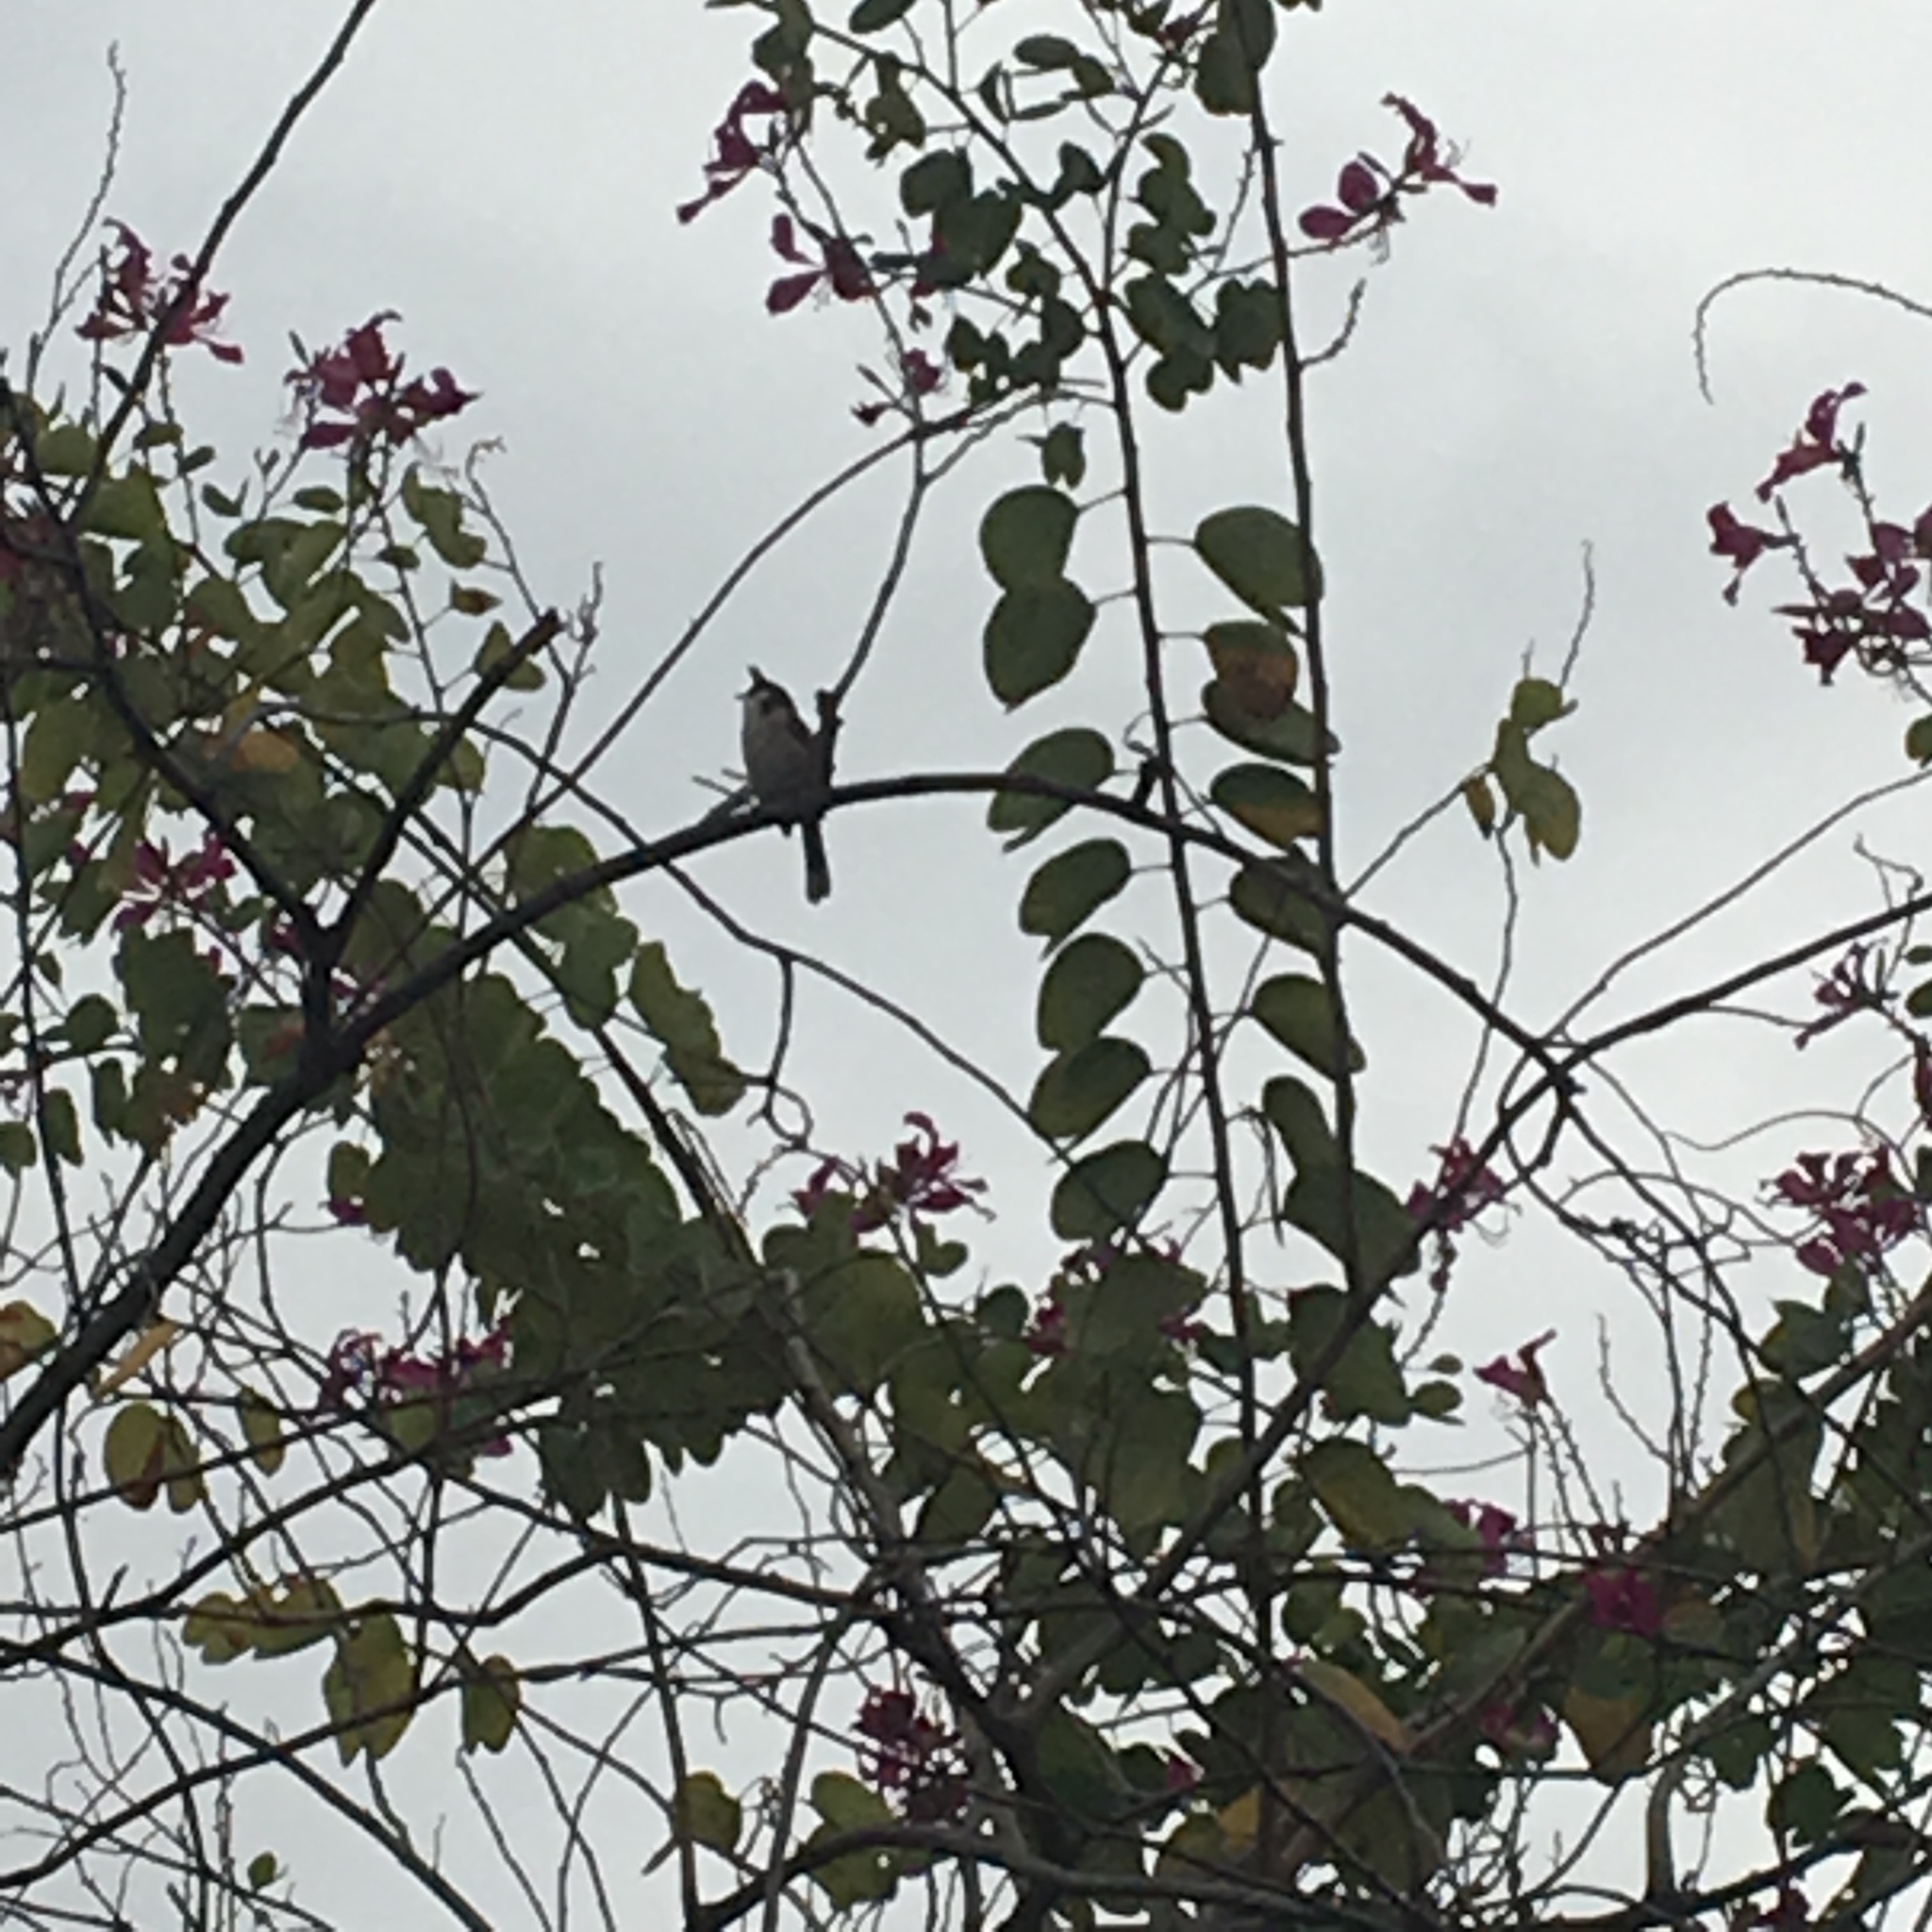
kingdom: Animalia
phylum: Chordata
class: Aves
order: Passeriformes
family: Pycnonotidae
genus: Pycnonotus
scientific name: Pycnonotus jocosus
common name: Red-whiskered bulbul
